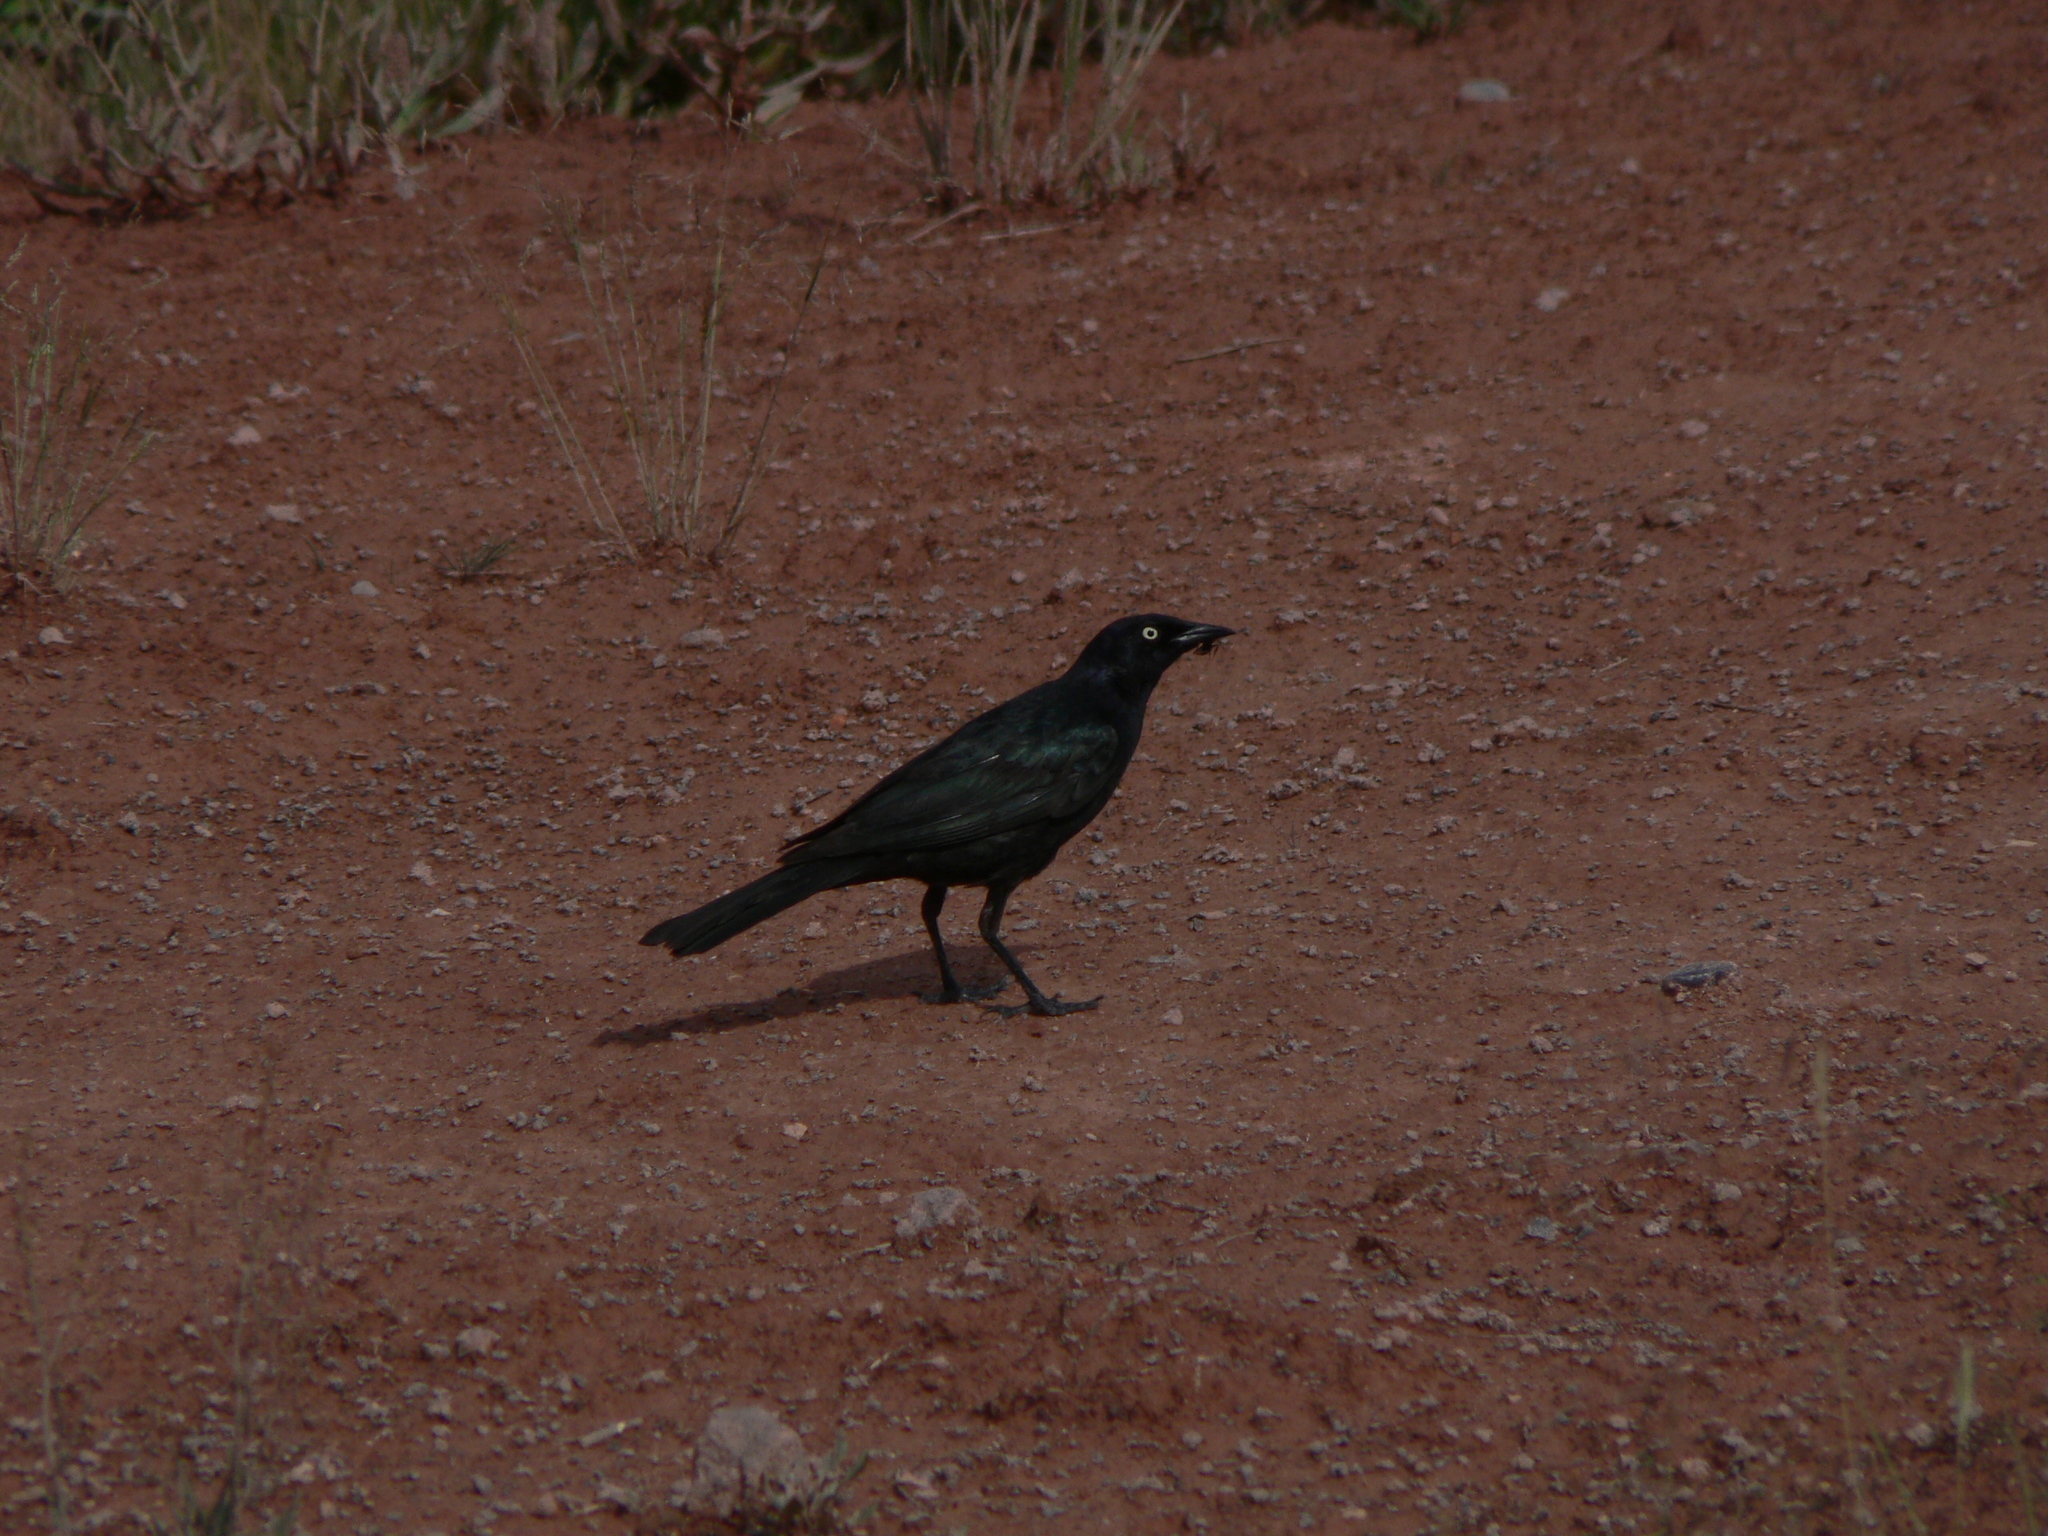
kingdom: Animalia
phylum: Chordata
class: Aves
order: Passeriformes
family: Icteridae
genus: Euphagus
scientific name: Euphagus cyanocephalus
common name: Brewer's blackbird
